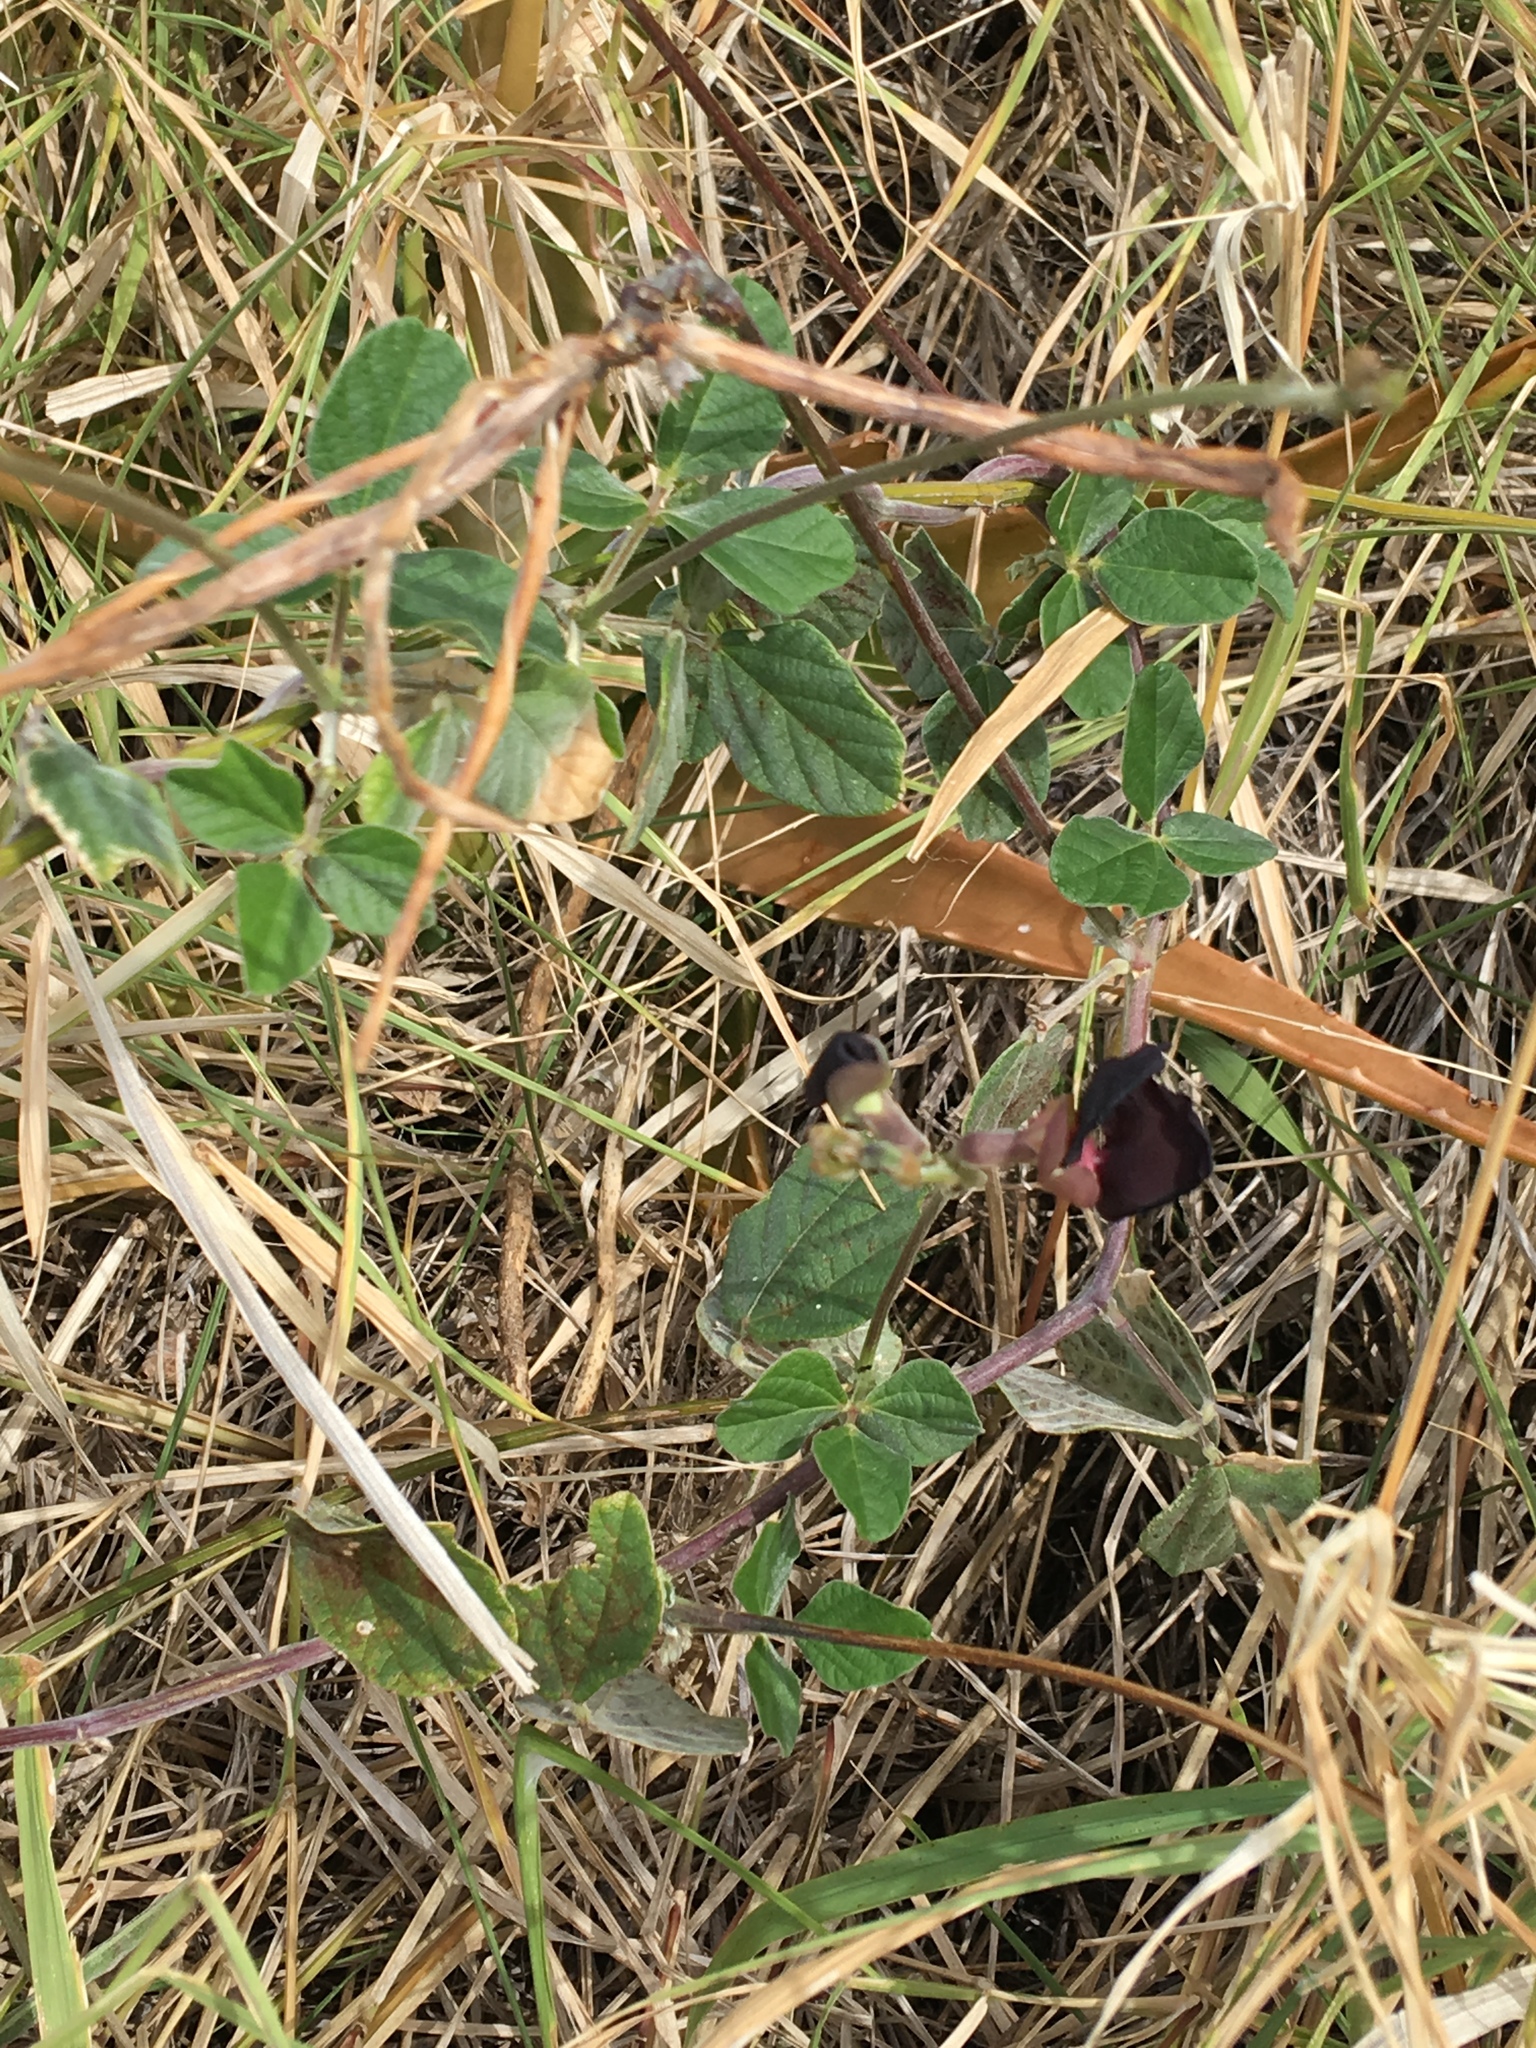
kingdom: Plantae
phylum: Tracheophyta
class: Magnoliopsida
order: Fabales
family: Fabaceae
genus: Macroptilium
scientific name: Macroptilium atropurpureum
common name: Purple bushbean
